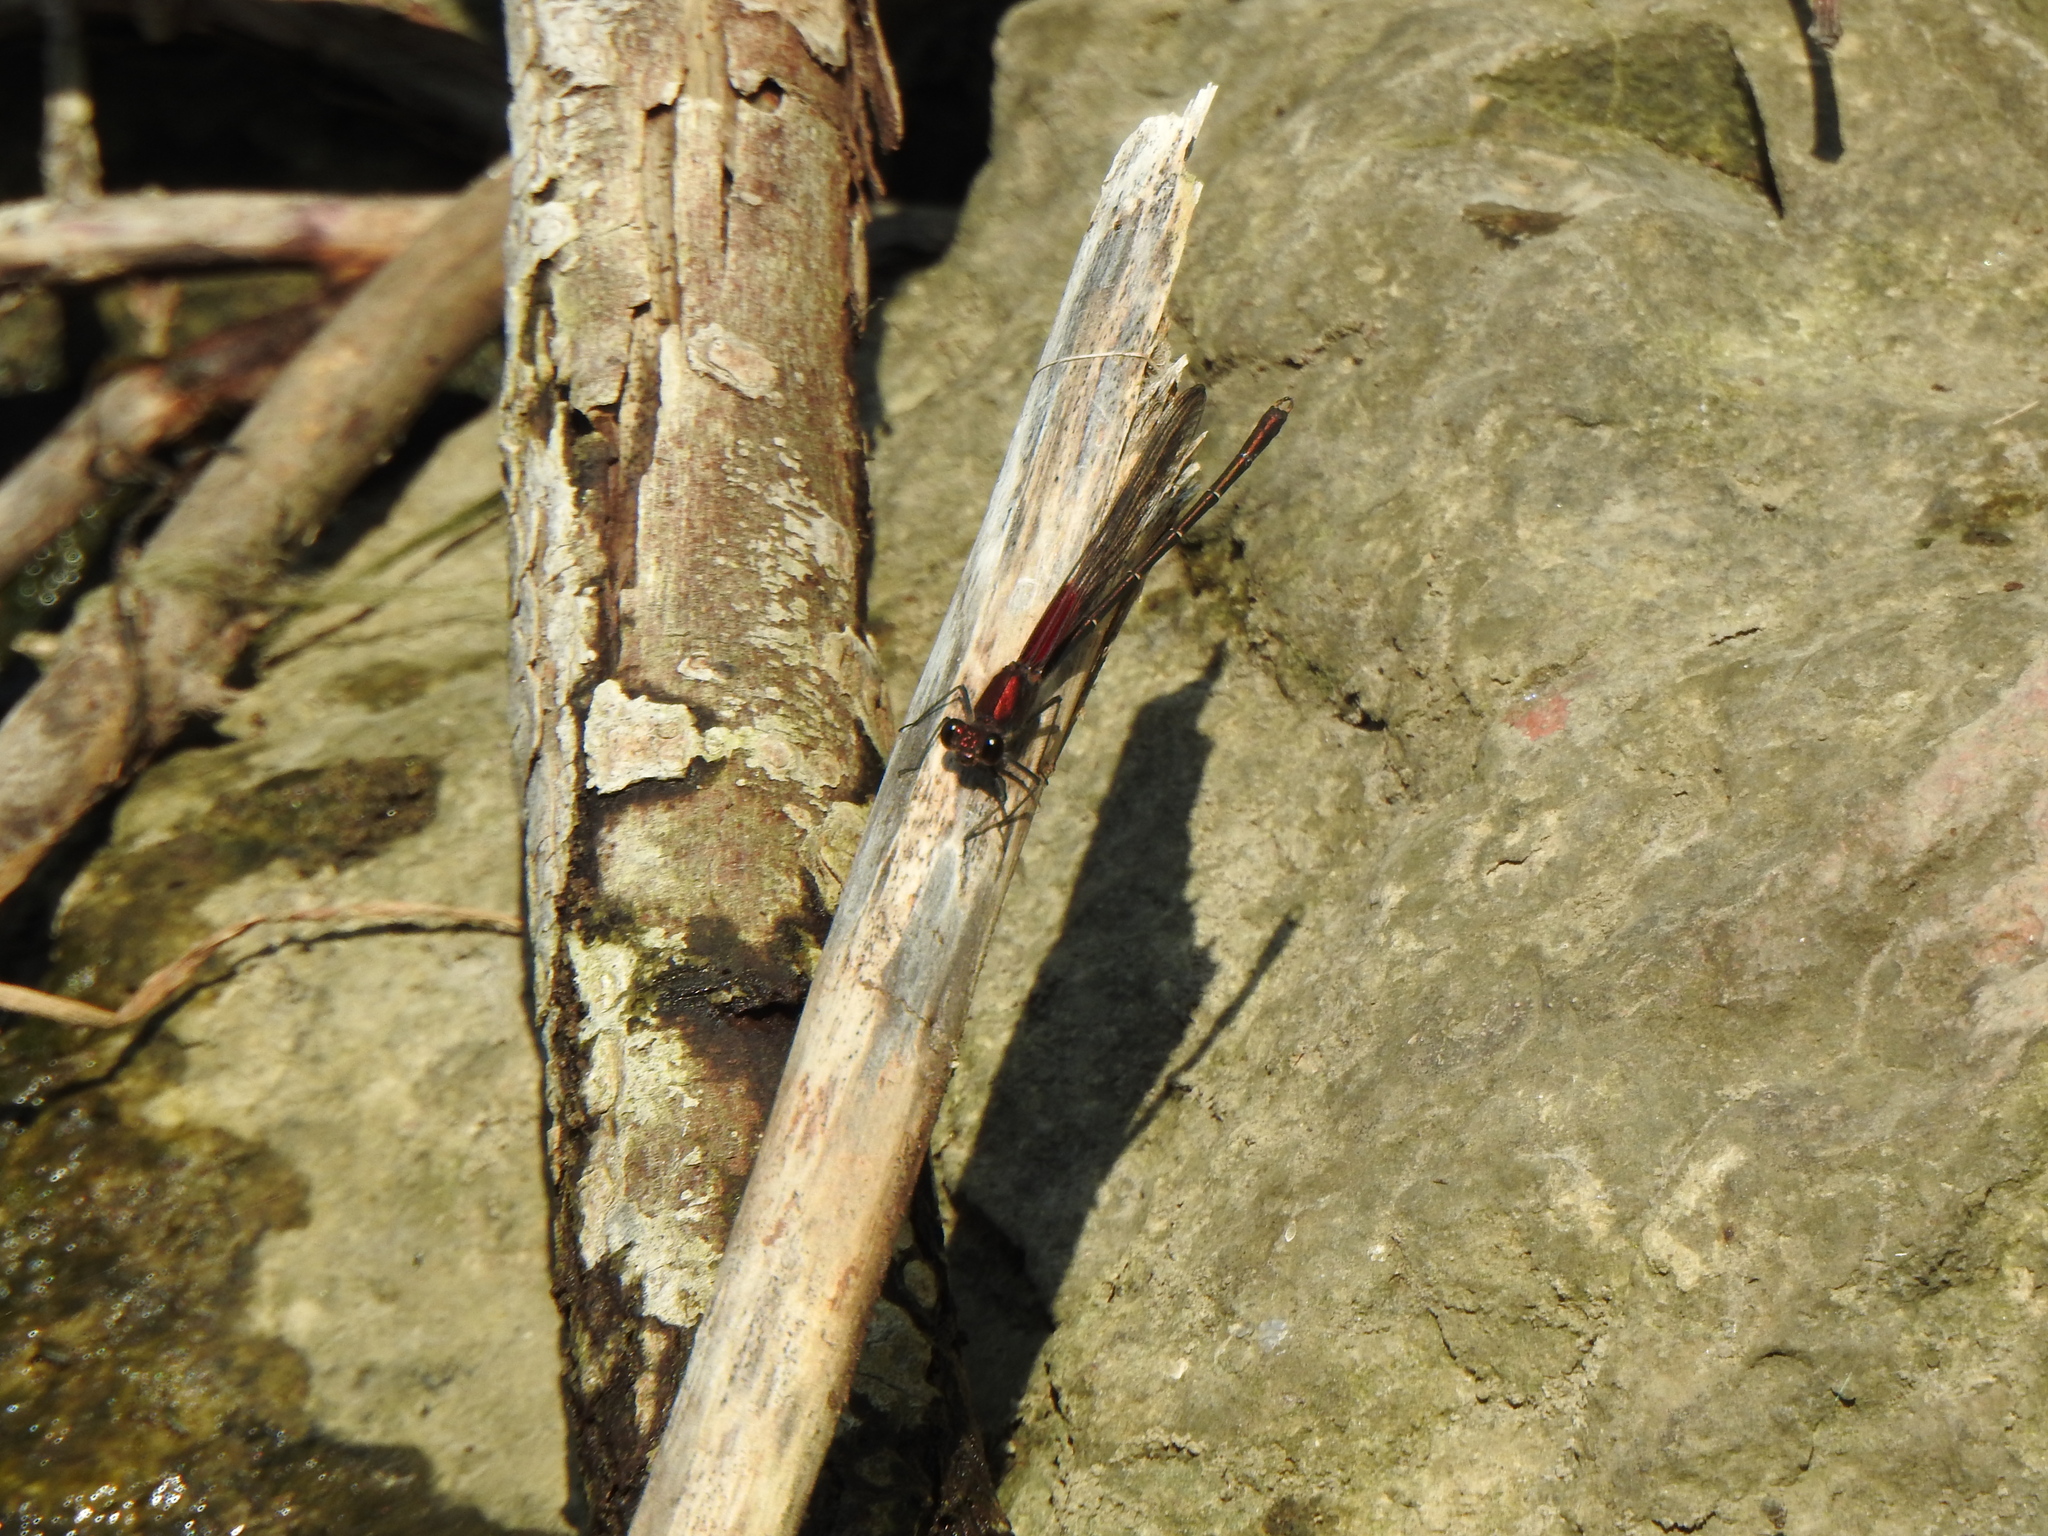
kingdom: Animalia
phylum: Arthropoda
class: Insecta
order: Odonata
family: Calopterygidae
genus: Hetaerina
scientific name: Hetaerina americana
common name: American rubyspot
